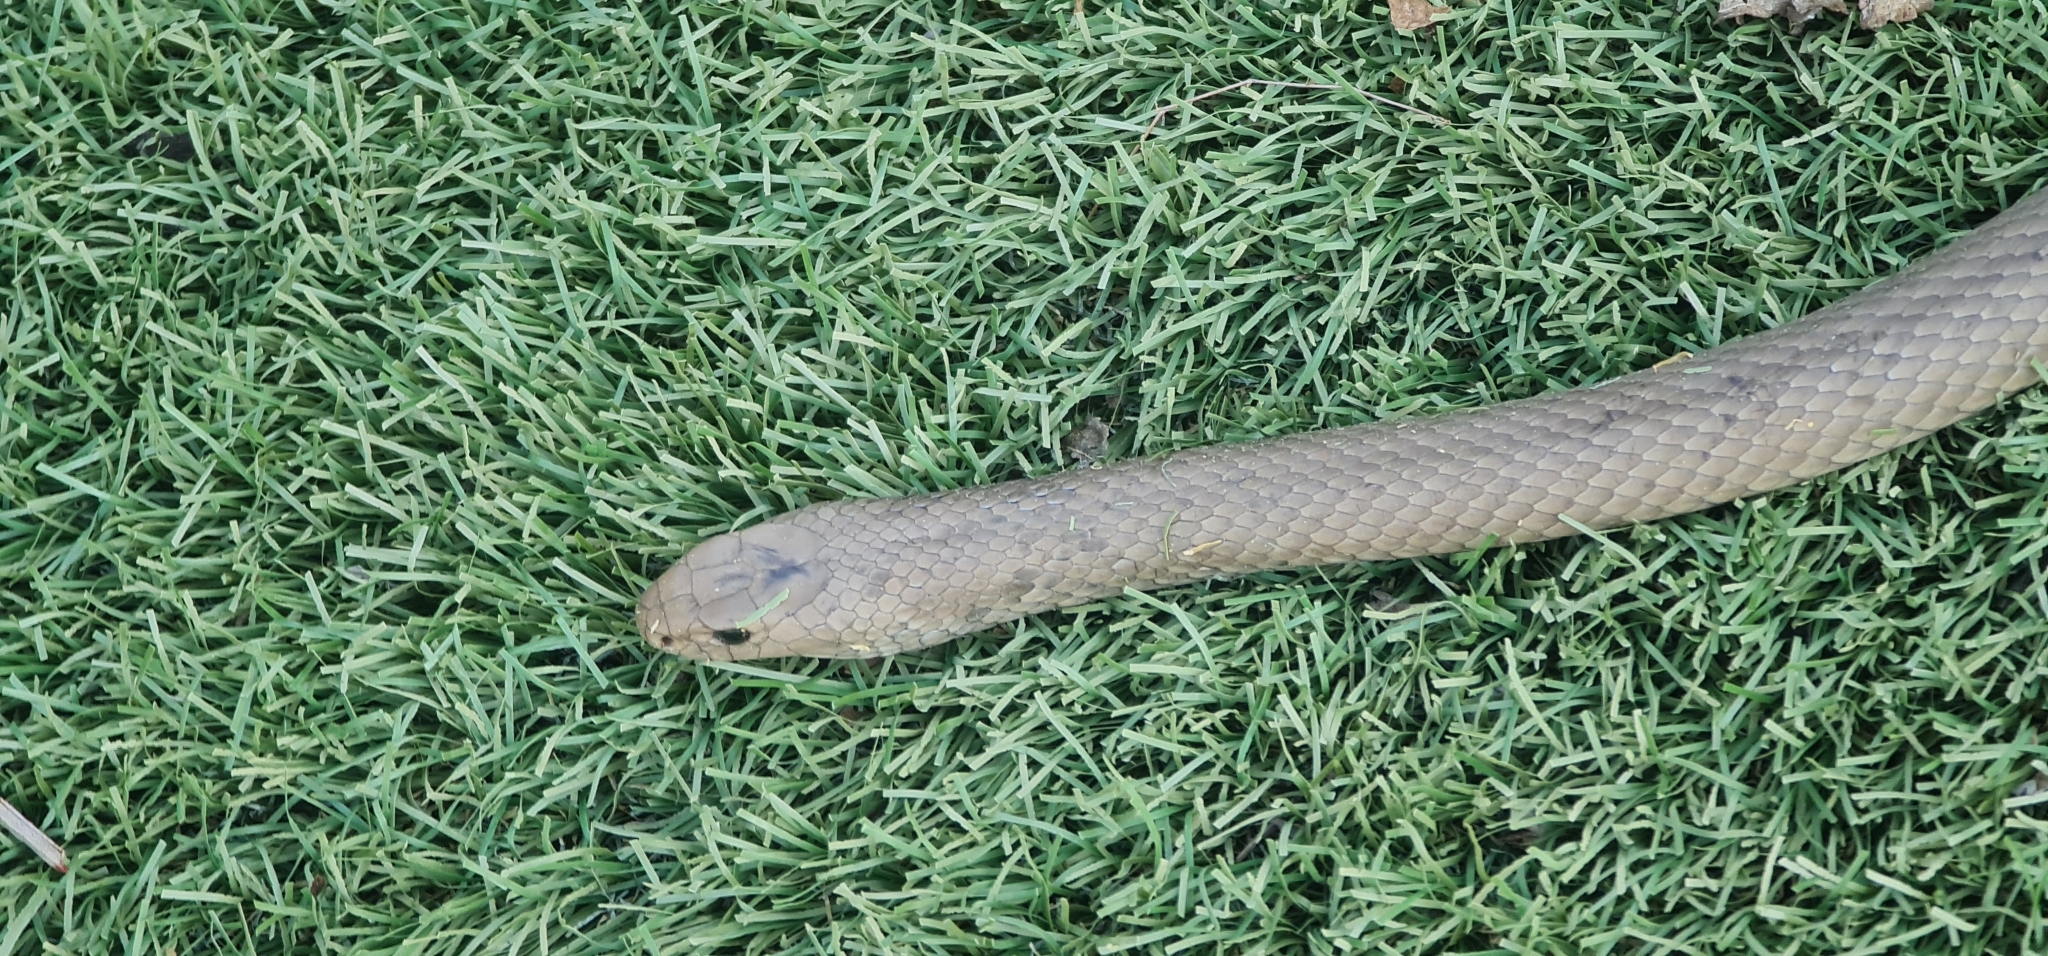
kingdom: Animalia
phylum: Chordata
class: Squamata
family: Elapidae
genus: Pseudonaja
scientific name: Pseudonaja textilis
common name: Eastern brown snake
